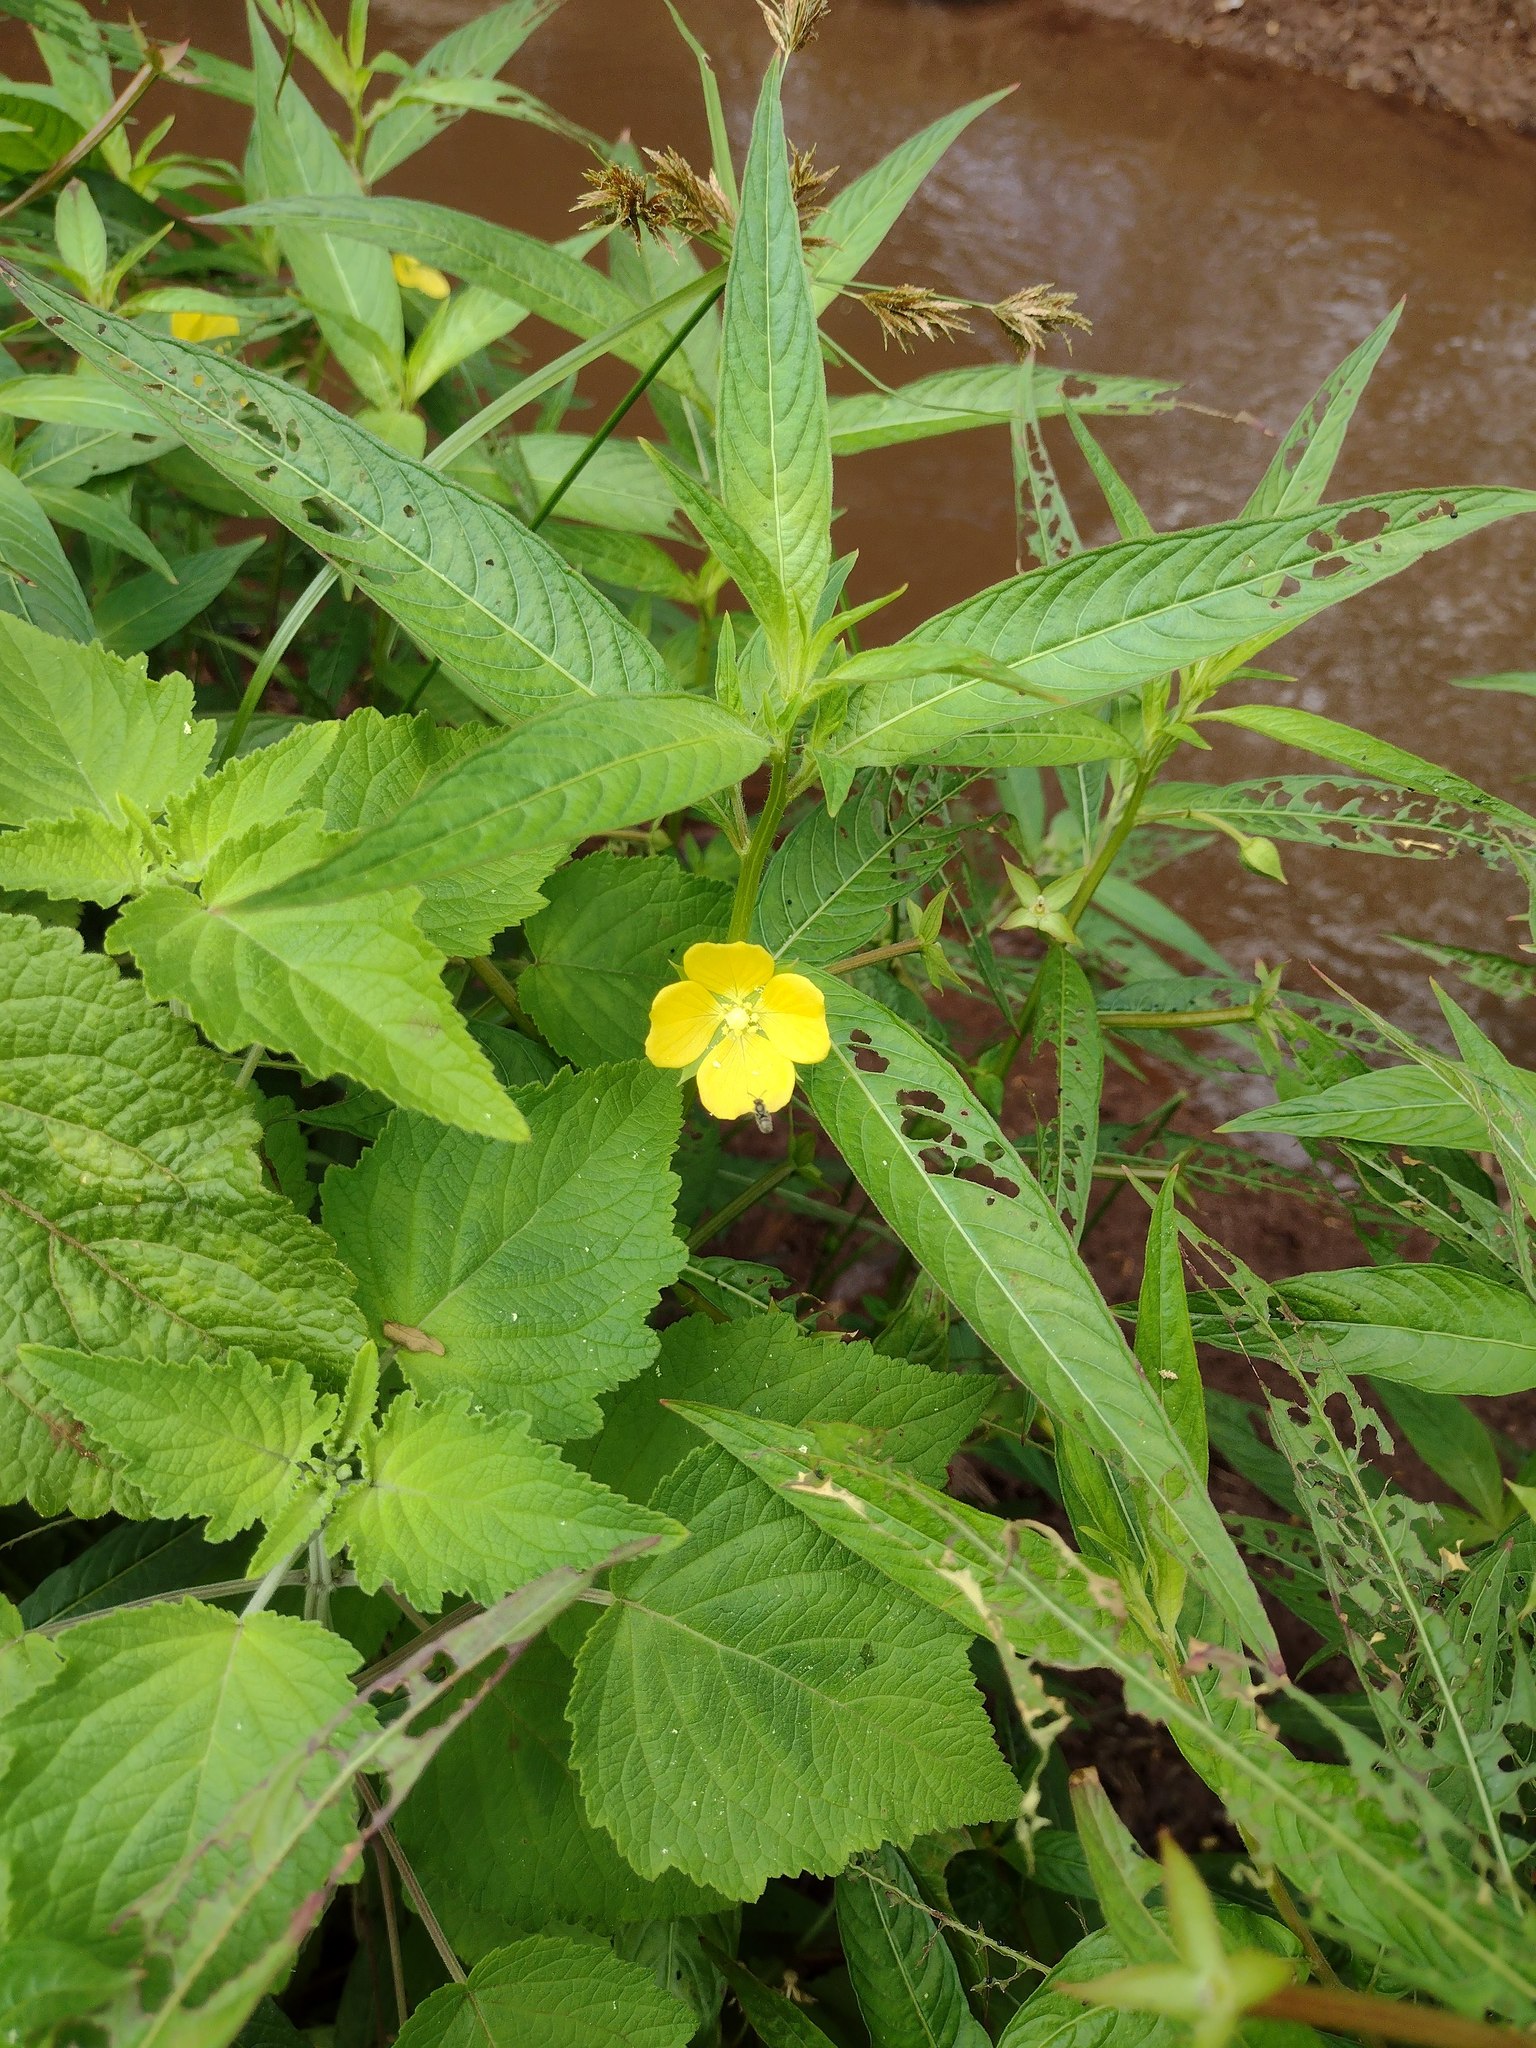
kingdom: Plantae
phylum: Tracheophyta
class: Magnoliopsida
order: Myrtales
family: Onagraceae
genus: Ludwigia
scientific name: Ludwigia octovalvis
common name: Water-primrose
